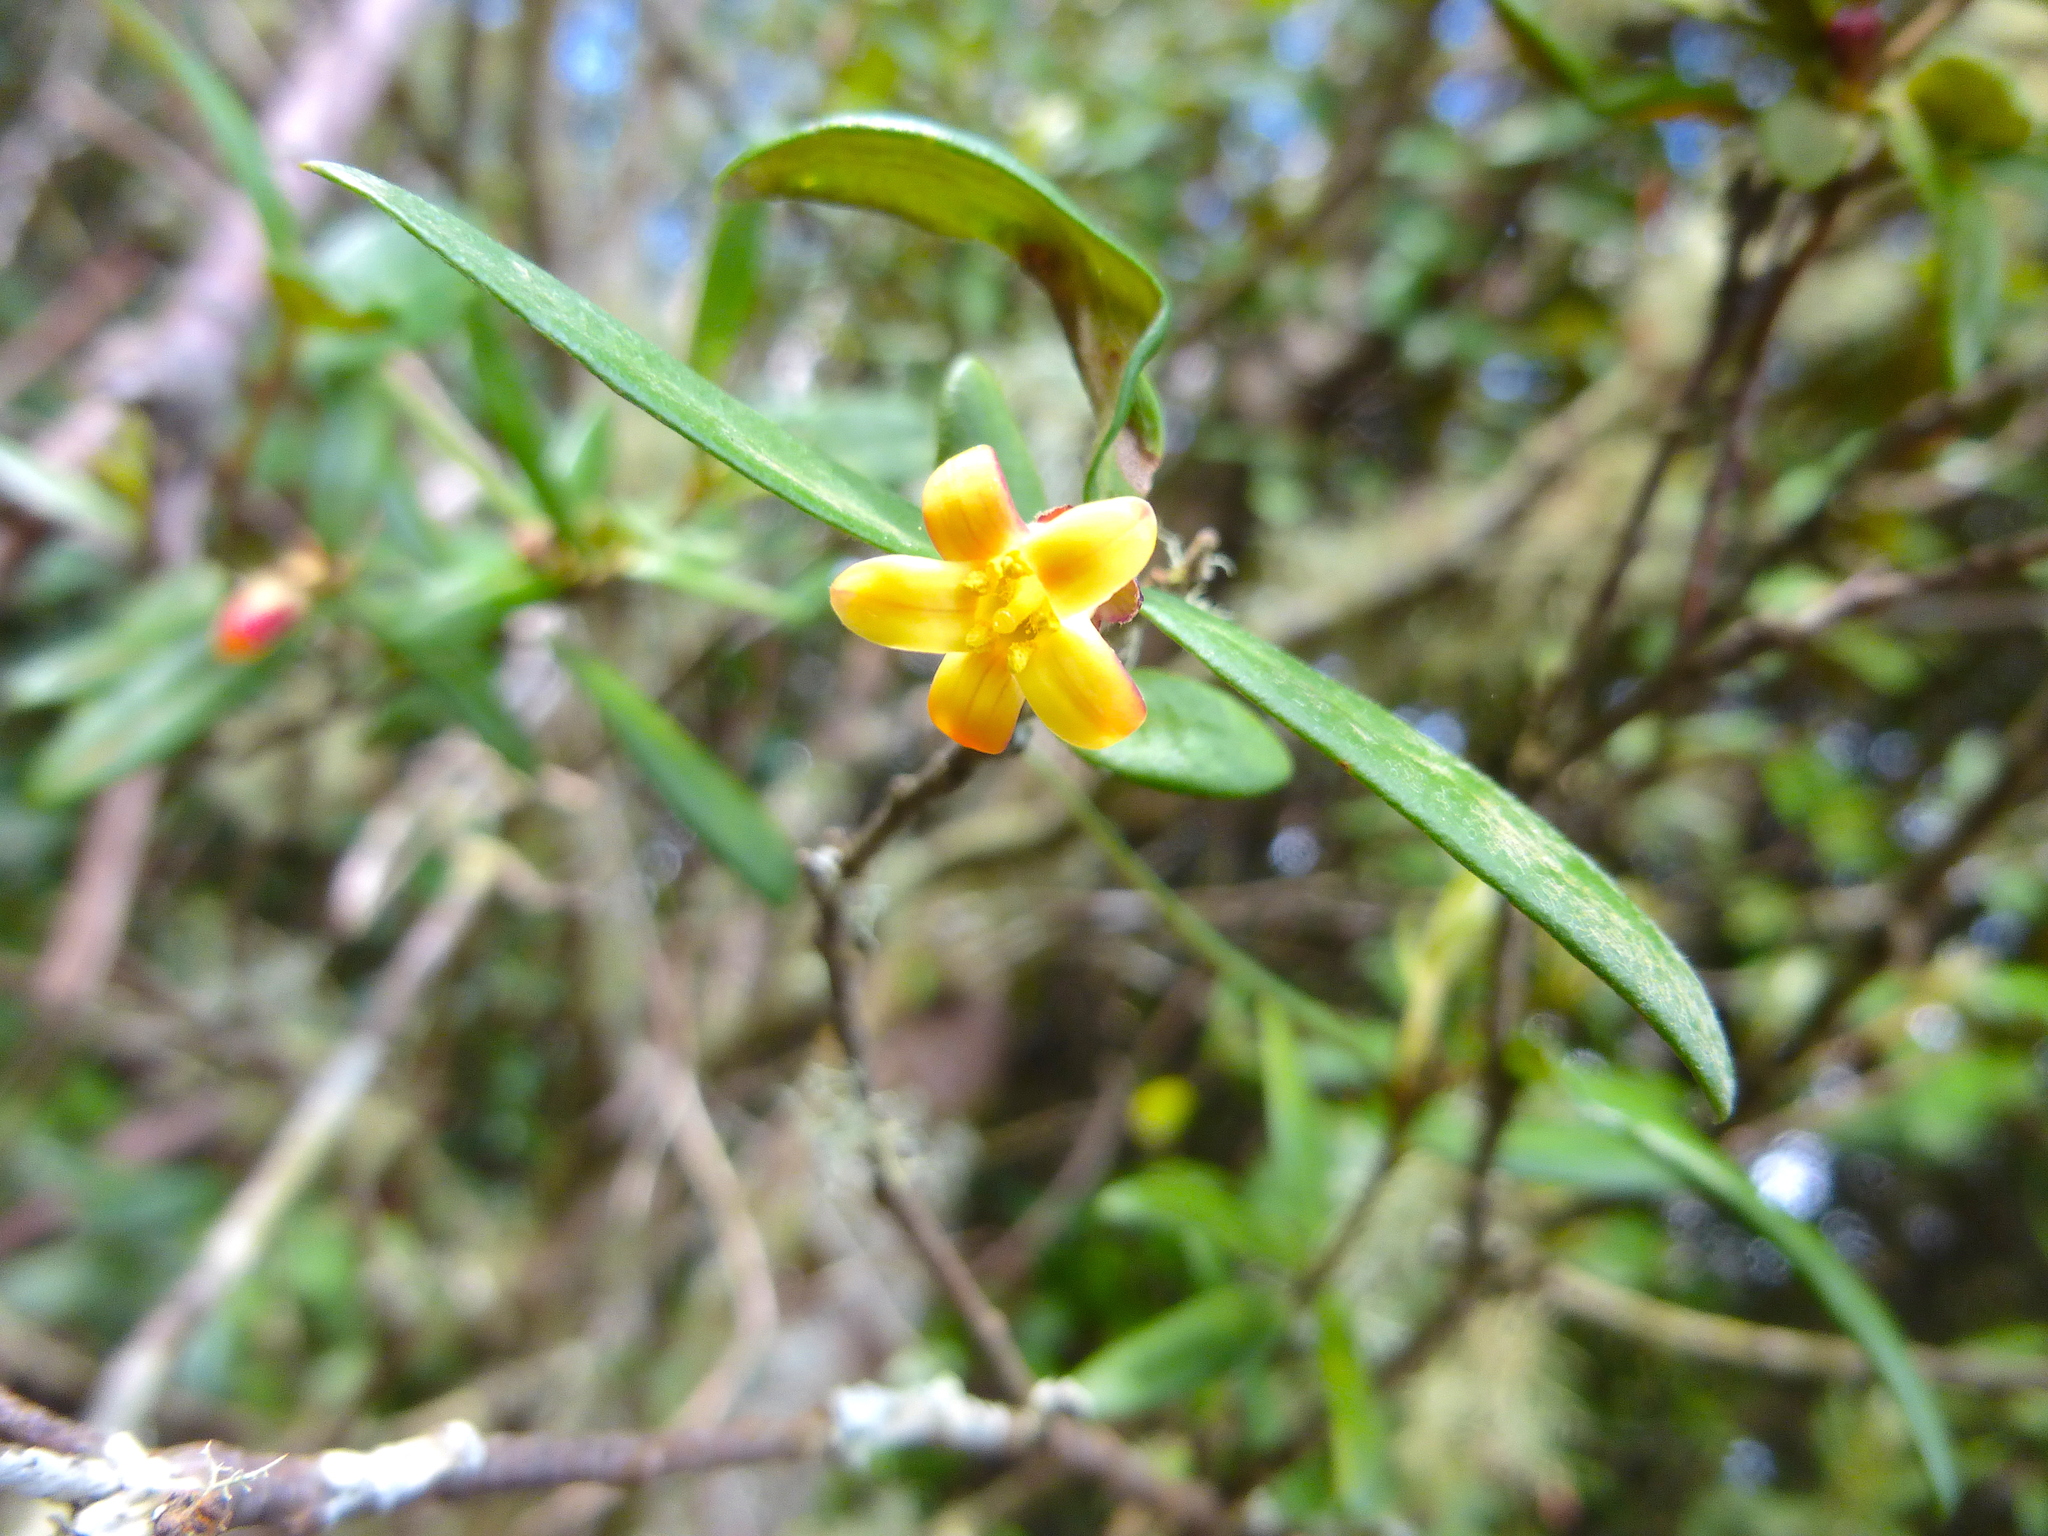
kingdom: Plantae
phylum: Tracheophyta
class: Magnoliopsida
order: Apiales
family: Pittosporaceae
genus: Pittosporum
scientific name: Pittosporum bicolor
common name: Tallowwood
